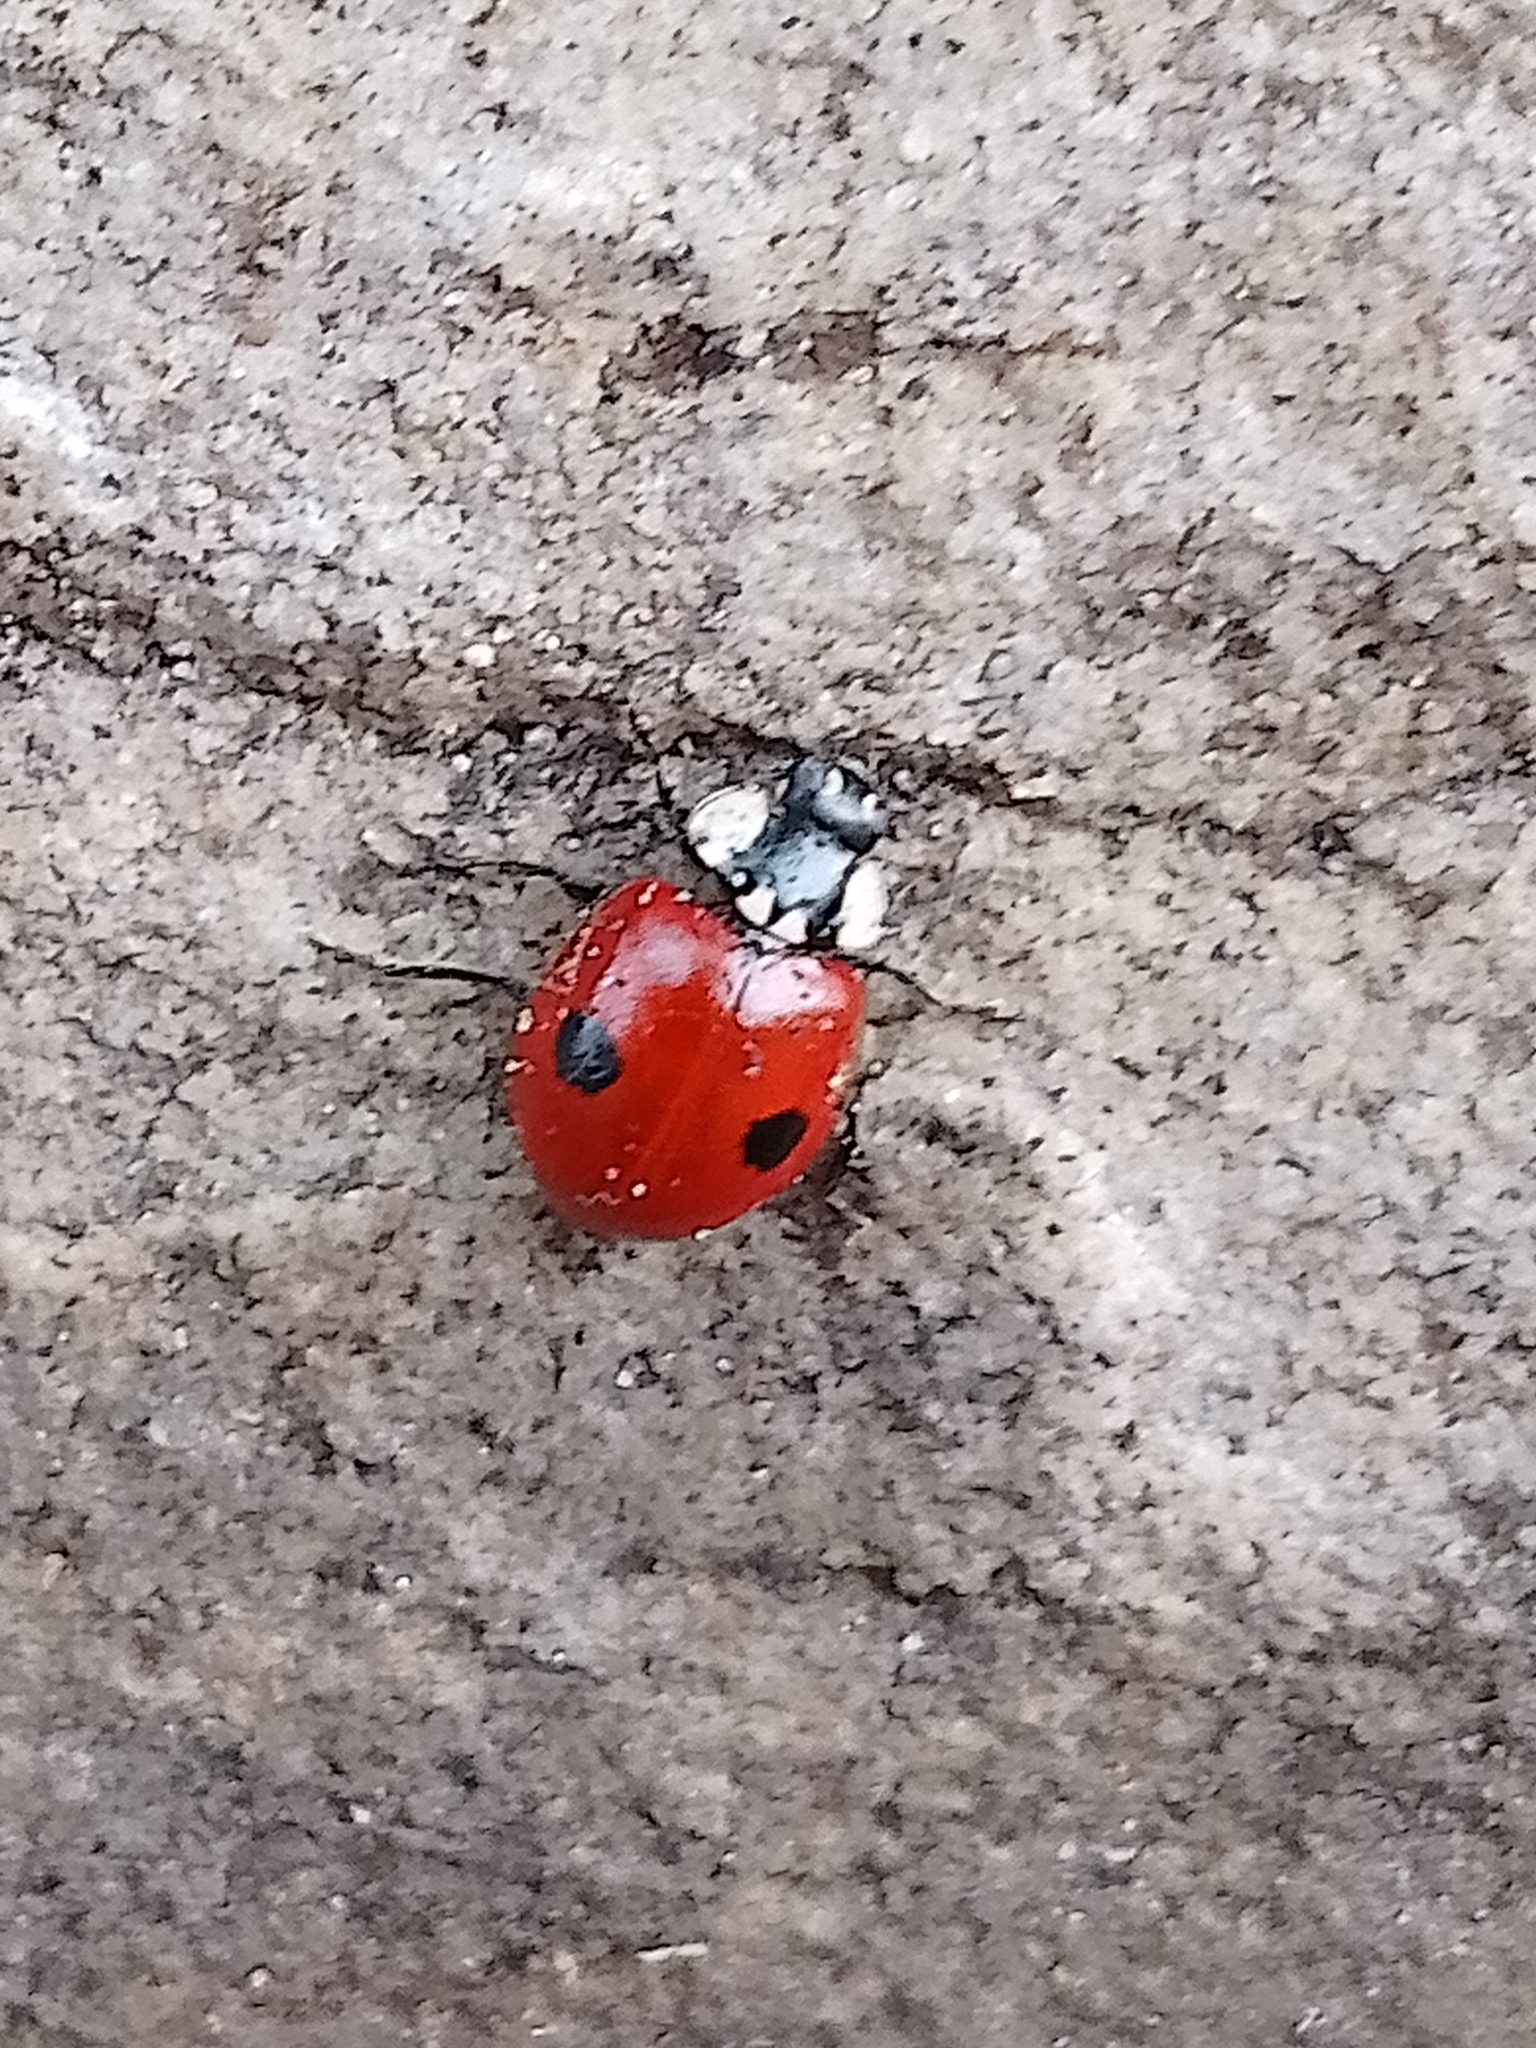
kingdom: Animalia
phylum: Arthropoda
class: Insecta
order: Coleoptera
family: Coccinellidae
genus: Adalia
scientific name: Adalia bipunctata
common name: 2-spot ladybird
